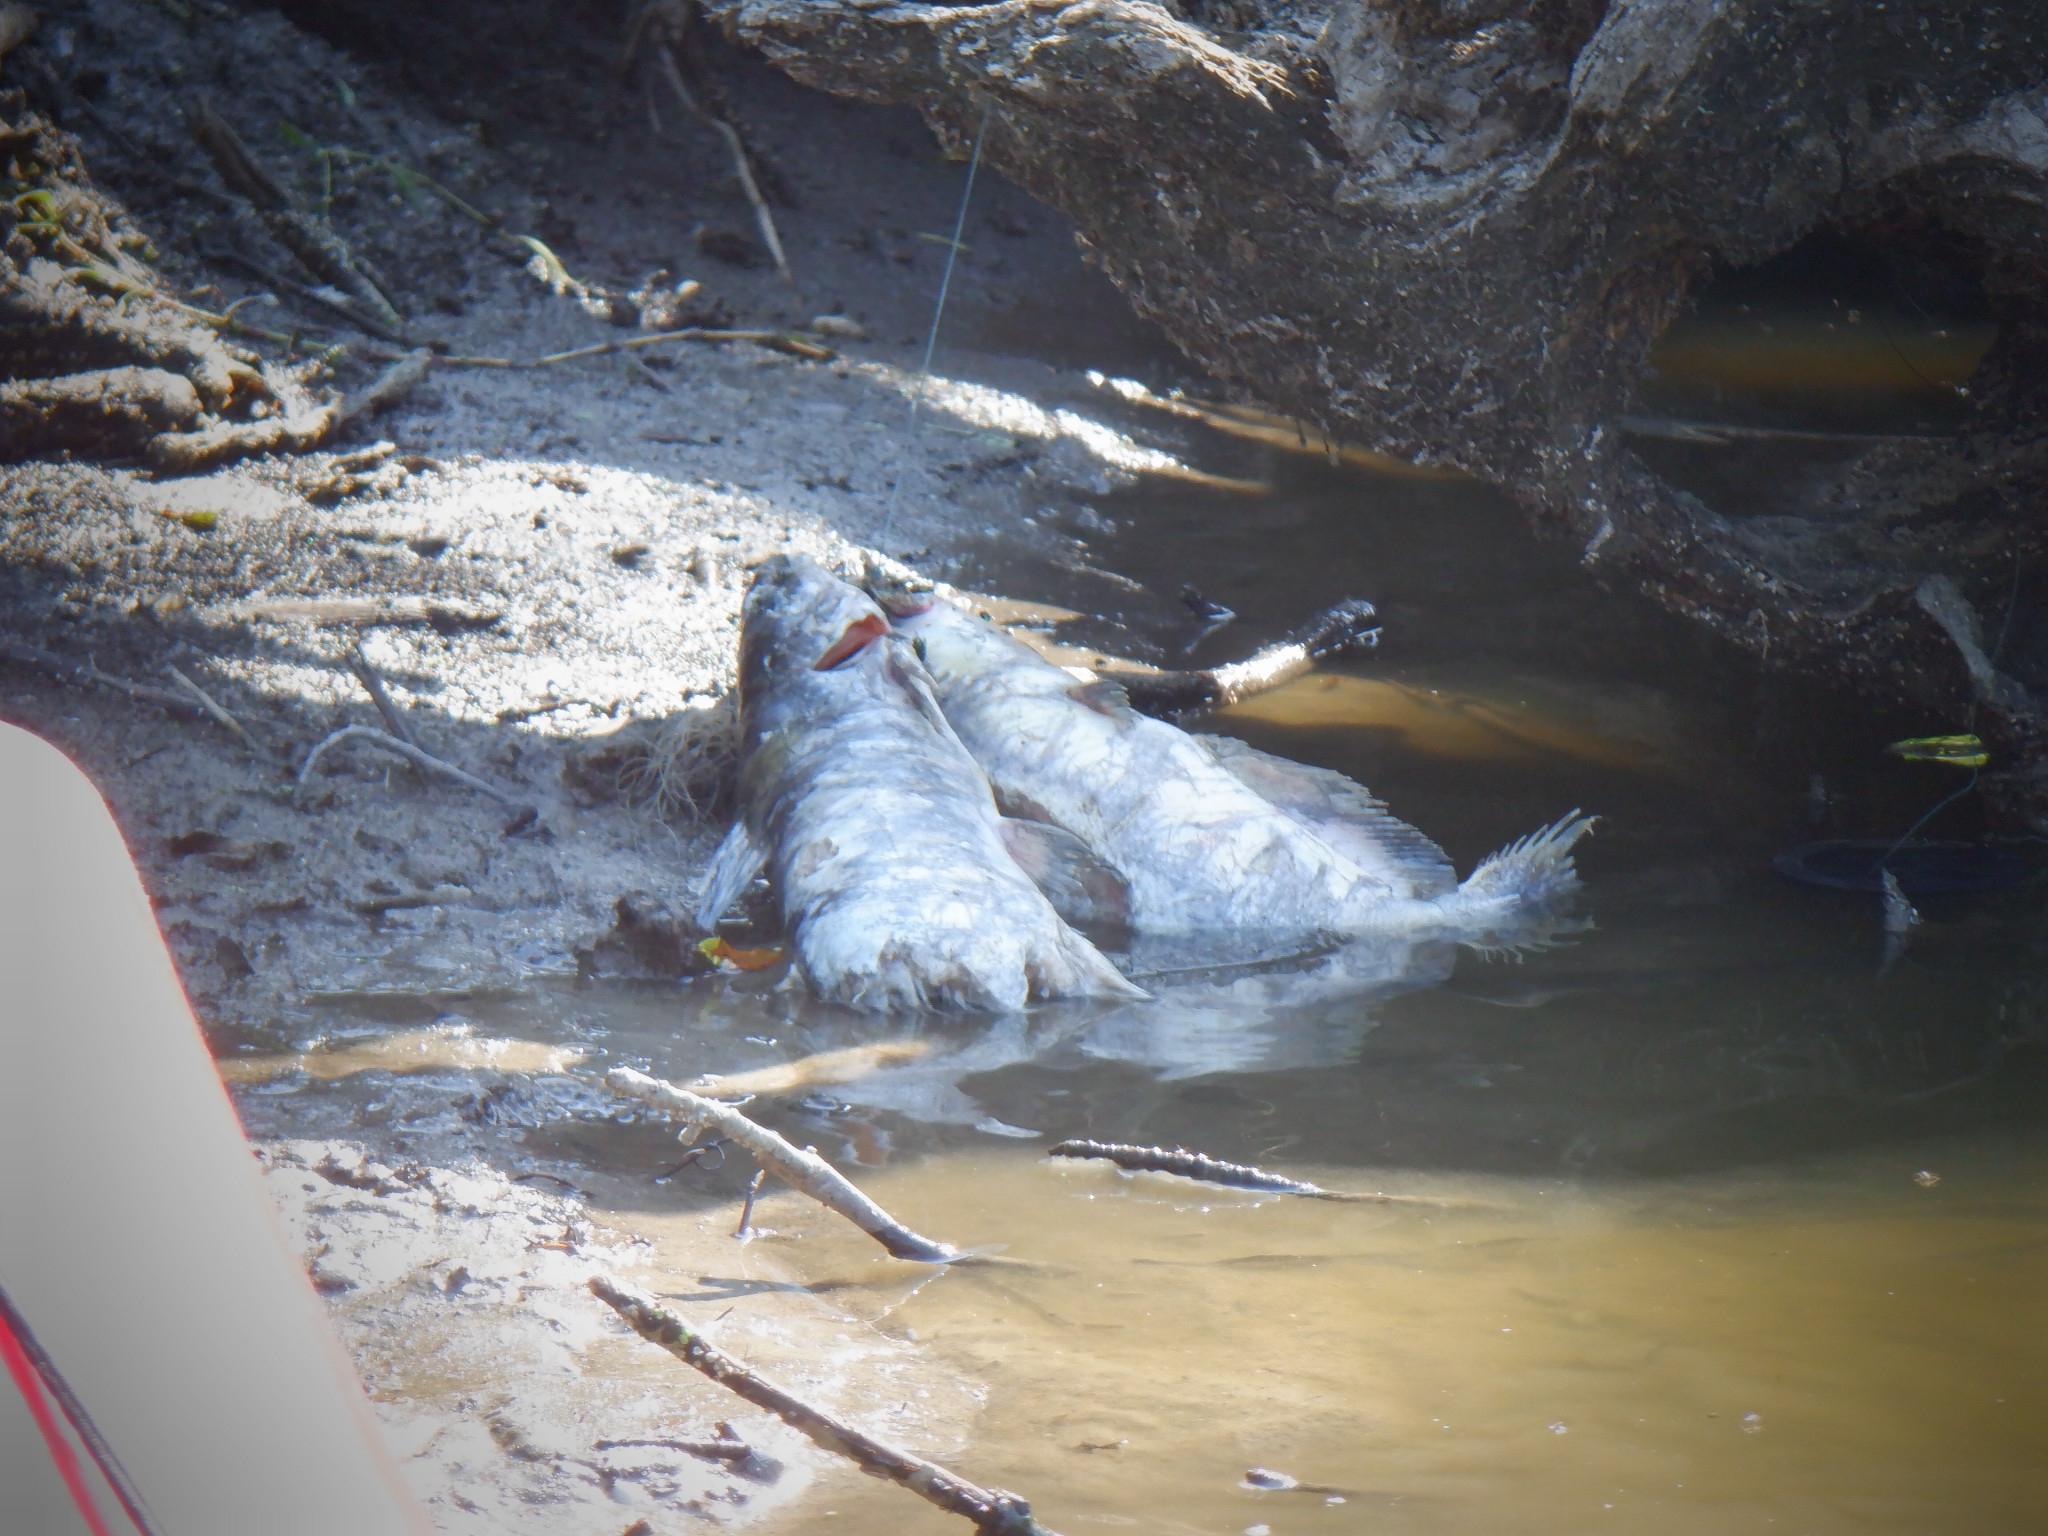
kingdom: Animalia
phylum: Chordata
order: Siluriformes
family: Ictaluridae
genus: Ictalurus
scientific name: Ictalurus punctatus
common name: Channel catfish
